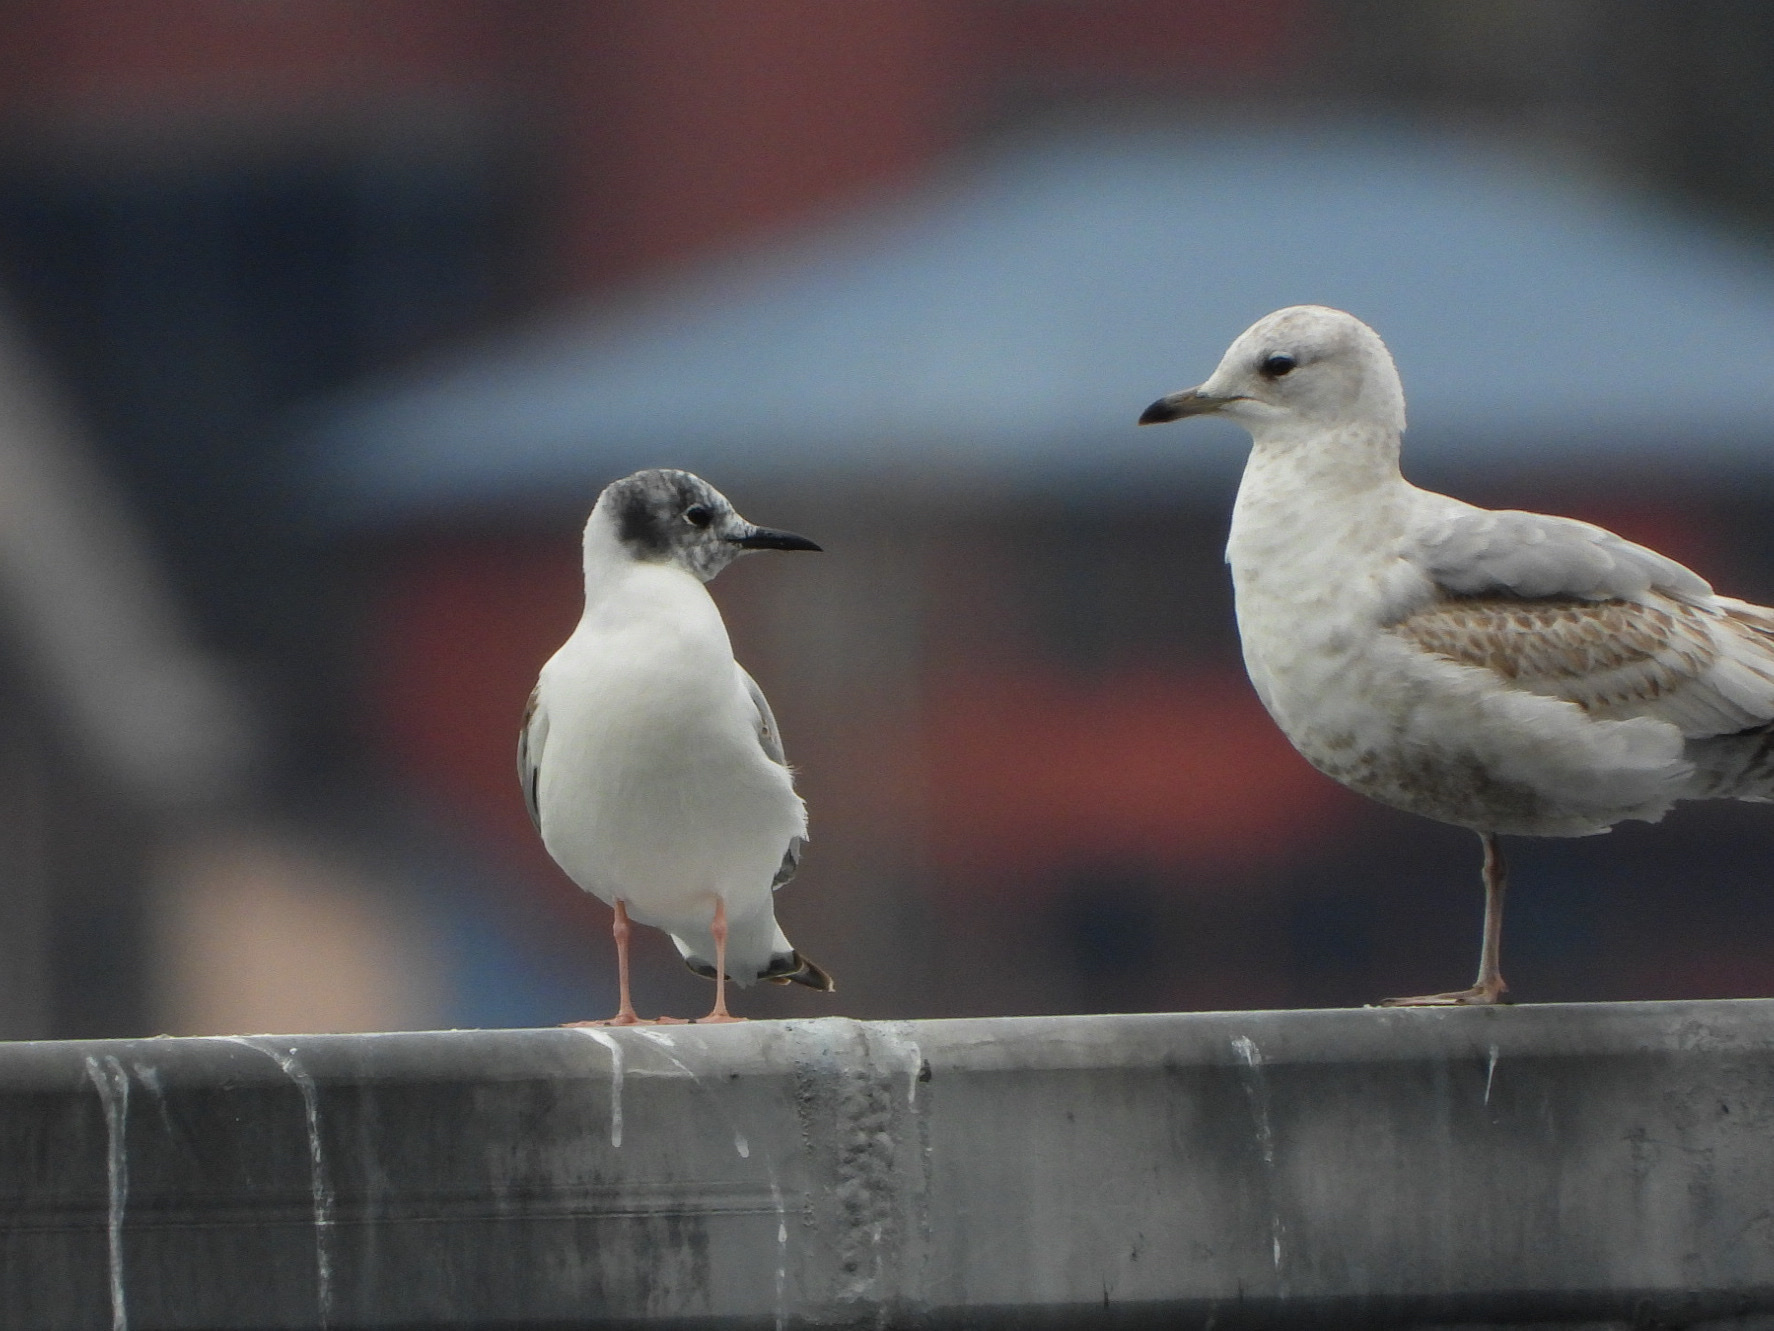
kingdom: Animalia
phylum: Chordata
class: Aves
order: Charadriiformes
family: Laridae
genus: Chroicocephalus
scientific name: Chroicocephalus philadelphia
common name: Bonaparte's gull
